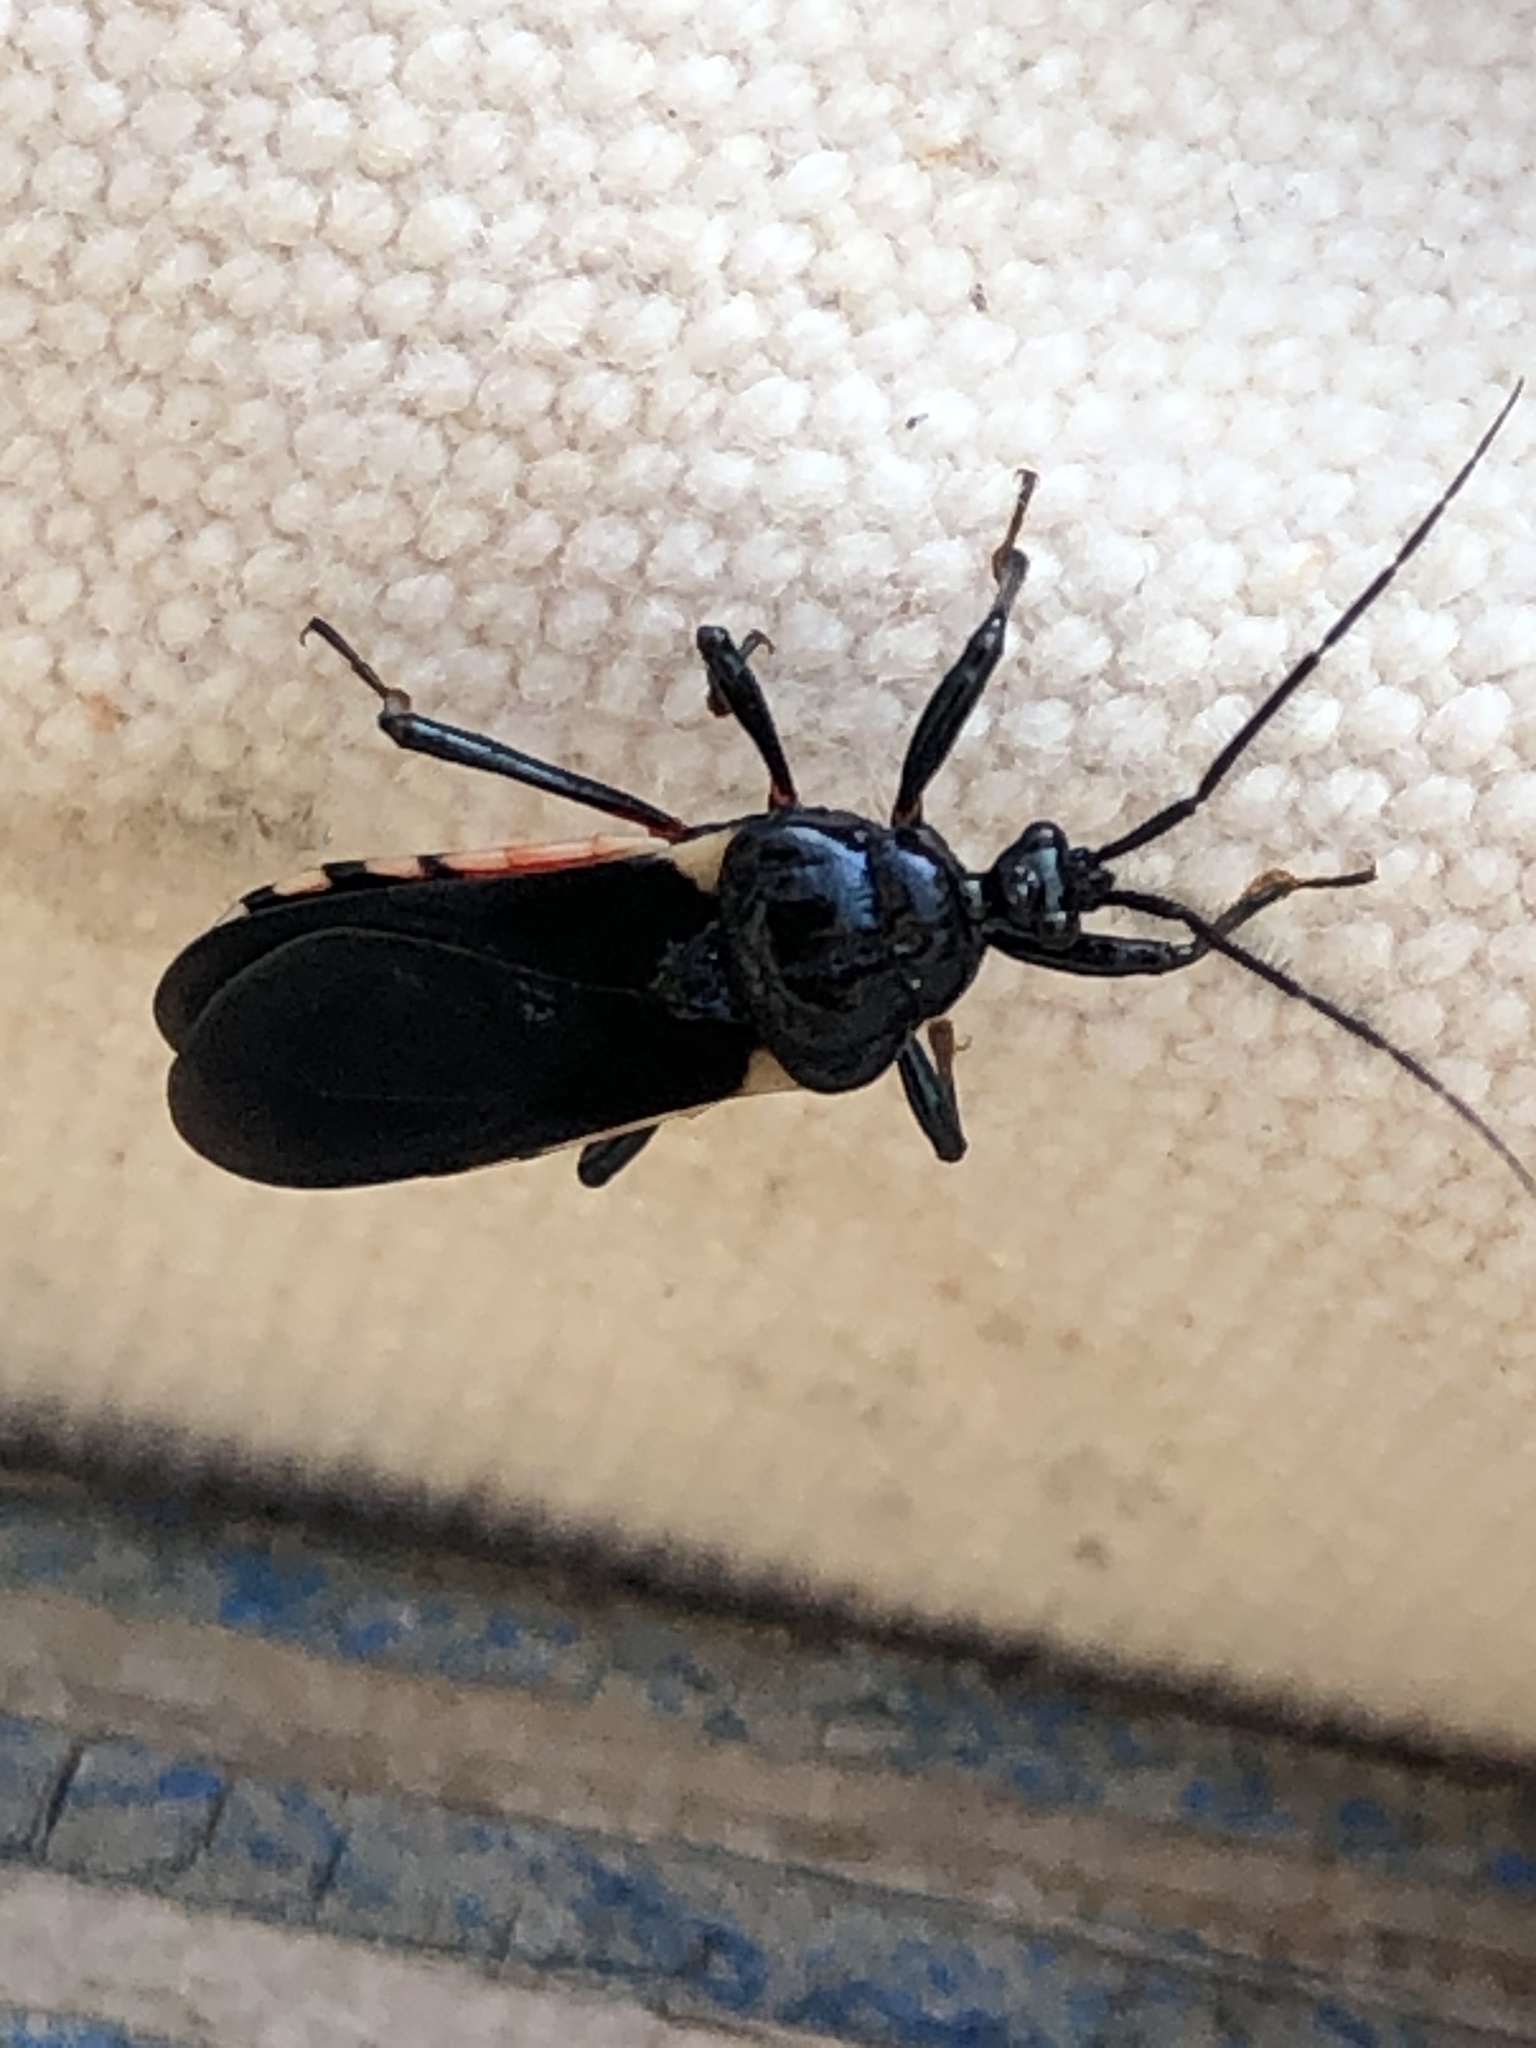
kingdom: Animalia
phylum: Arthropoda
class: Insecta
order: Hemiptera
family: Reduviidae
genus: Ectrychotes
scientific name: Ectrychotes andreae
